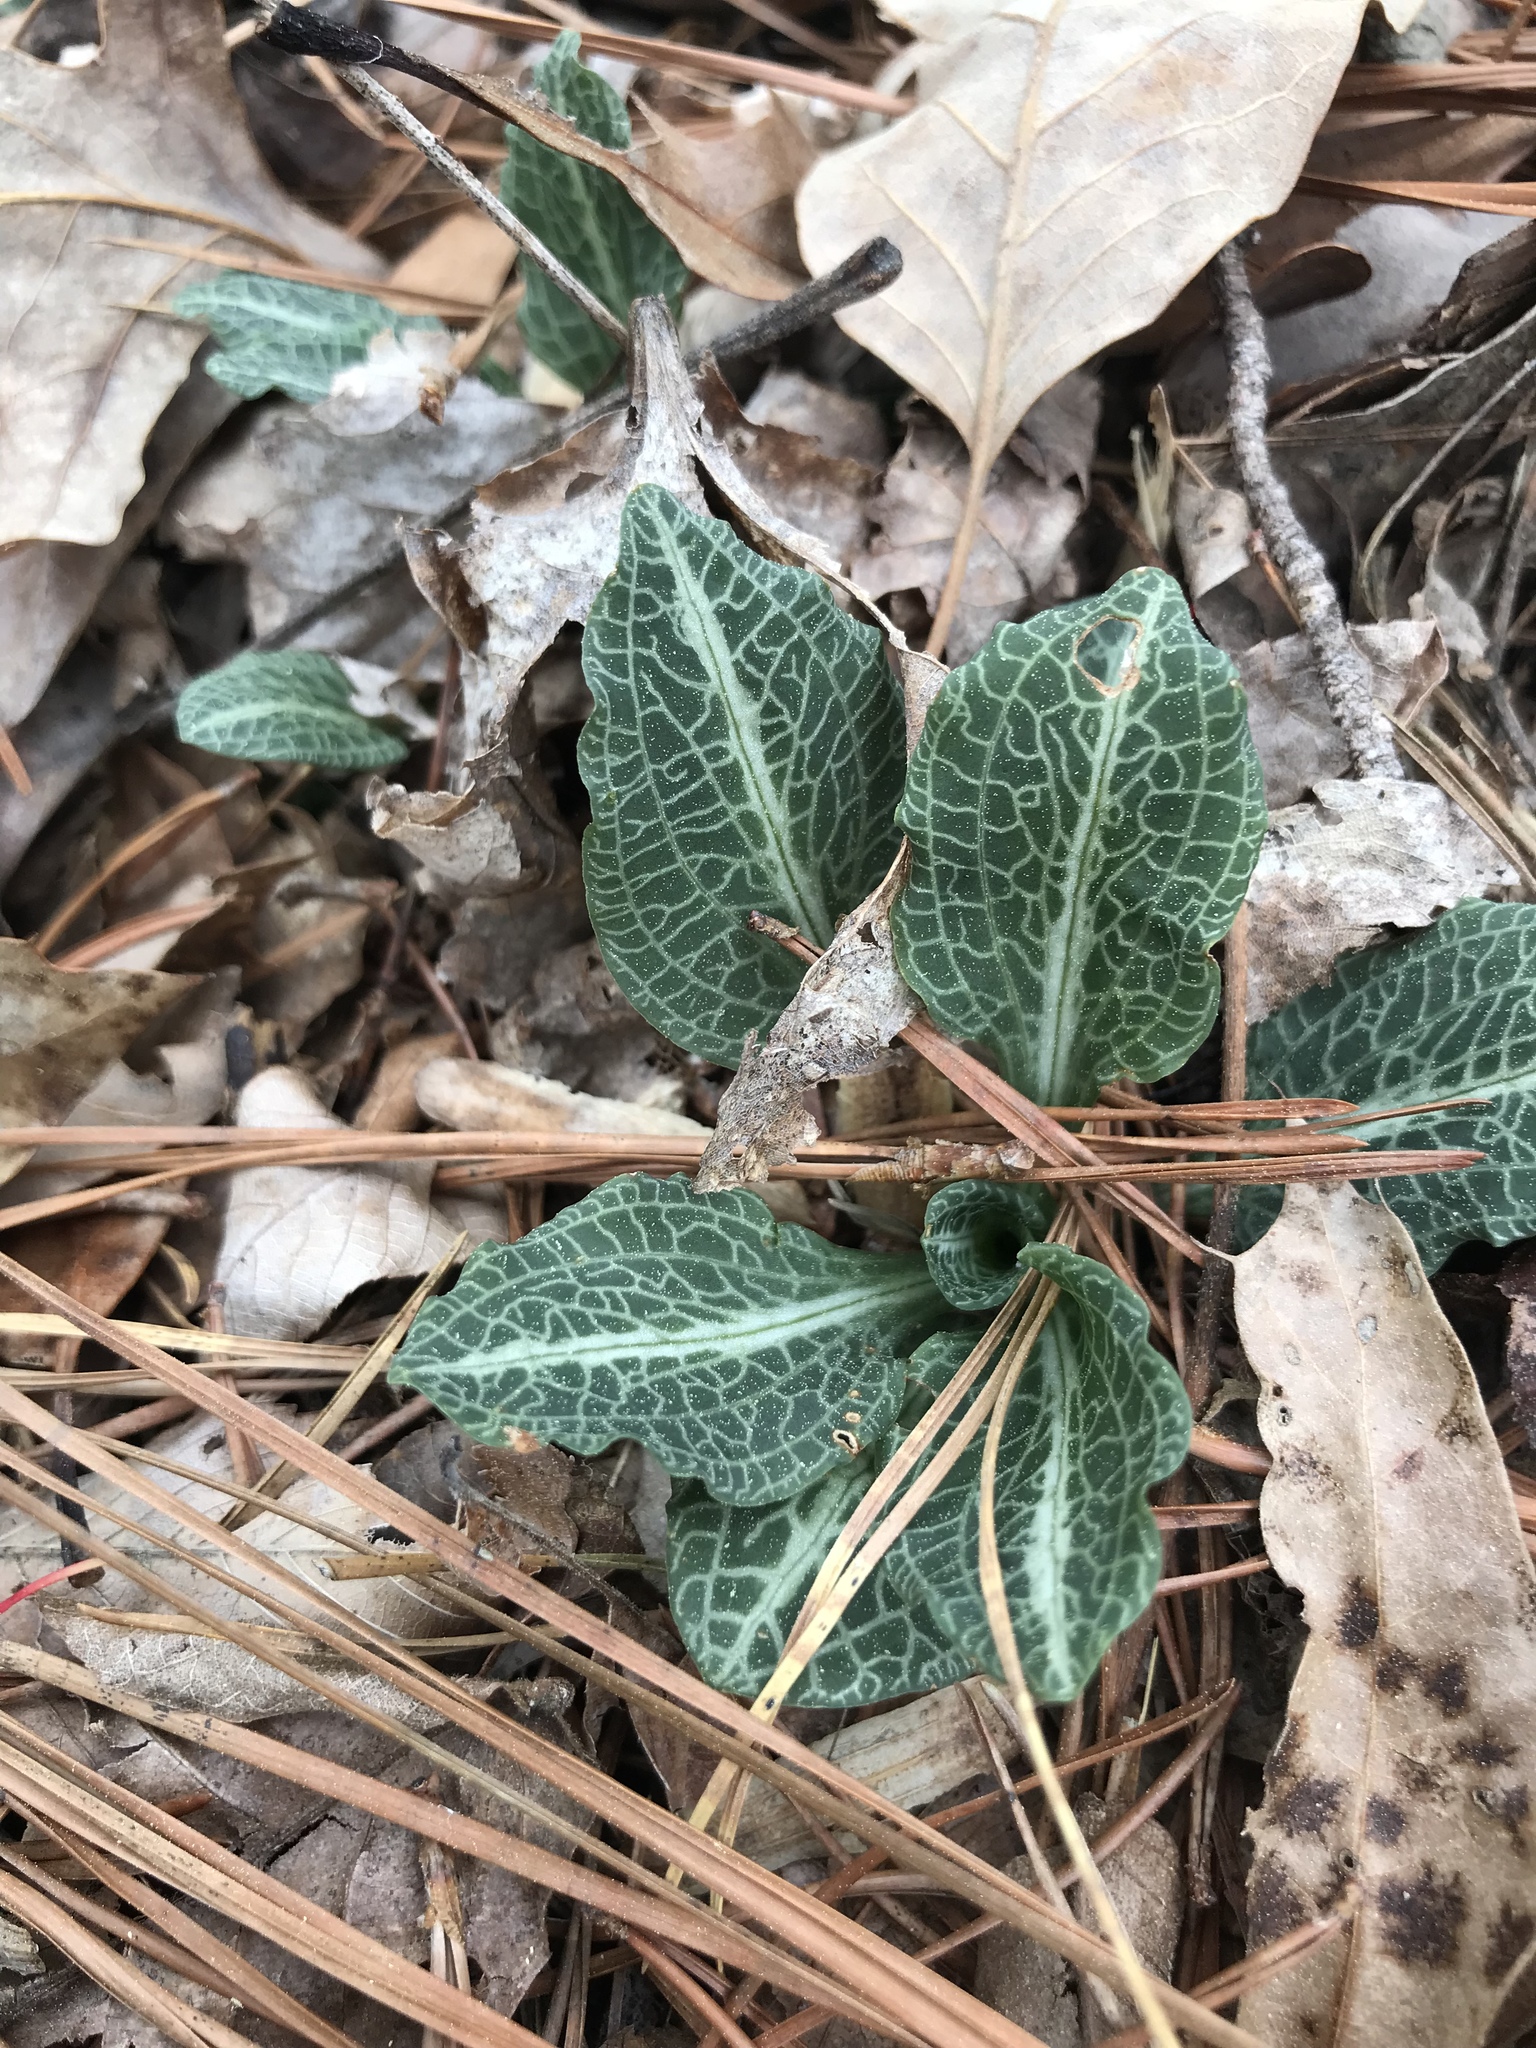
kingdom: Plantae
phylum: Tracheophyta
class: Liliopsida
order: Asparagales
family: Orchidaceae
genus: Goodyera
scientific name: Goodyera pubescens
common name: Downy rattlesnake-plantain
